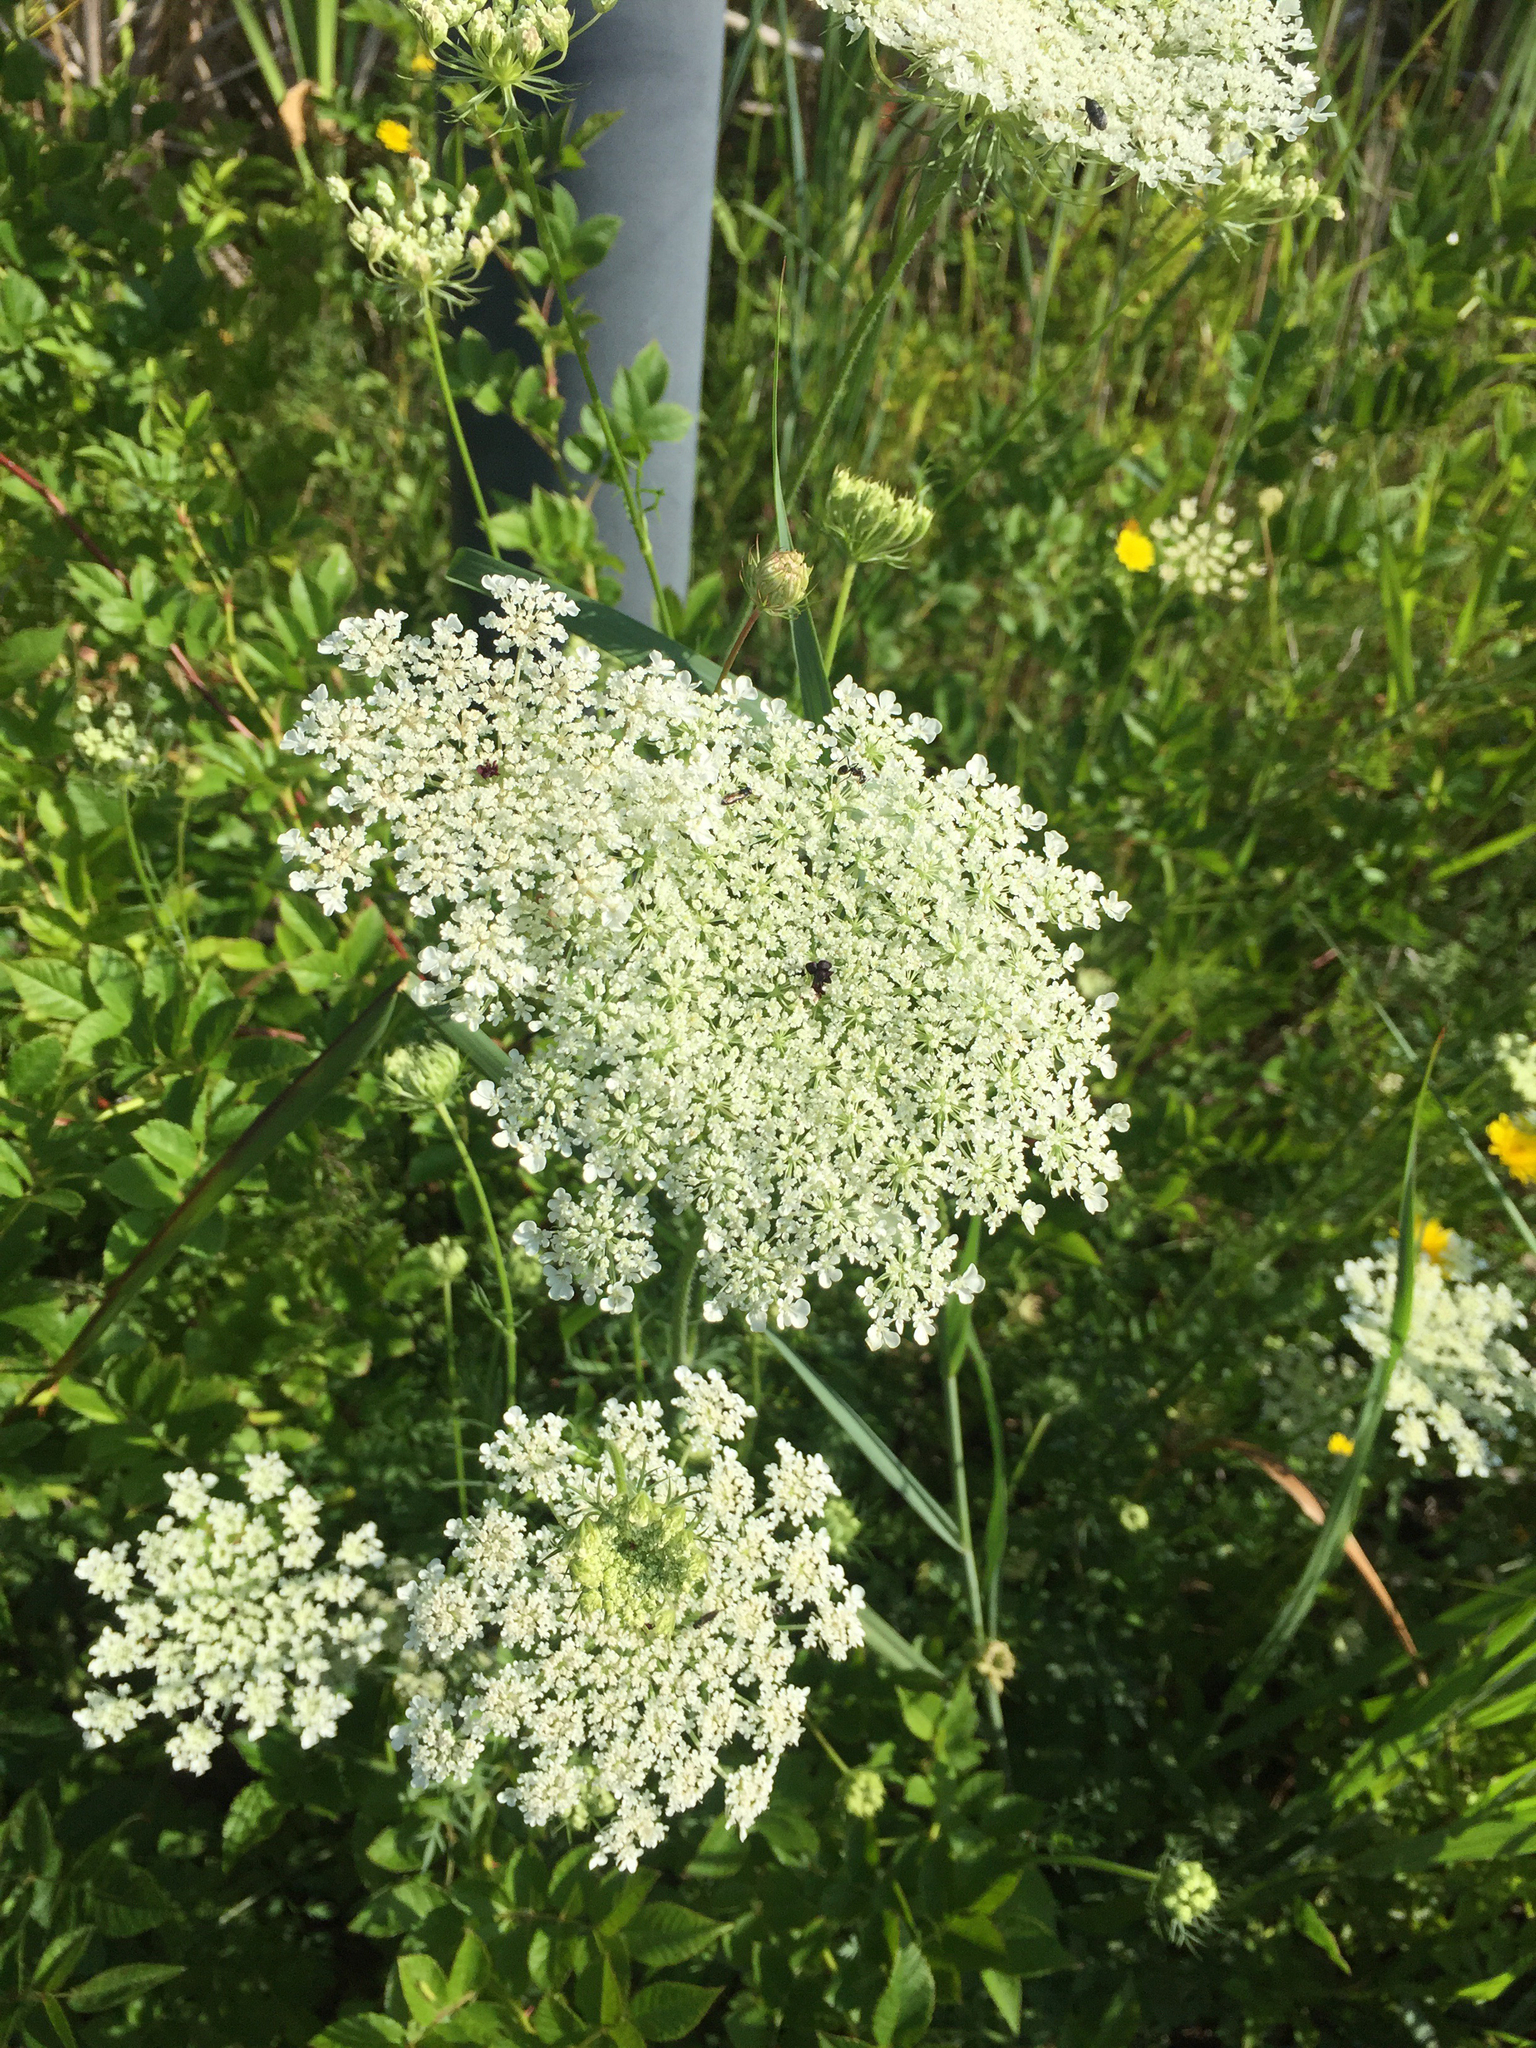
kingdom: Plantae
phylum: Tracheophyta
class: Magnoliopsida
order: Apiales
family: Apiaceae
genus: Daucus
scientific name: Daucus carota
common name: Wild carrot
